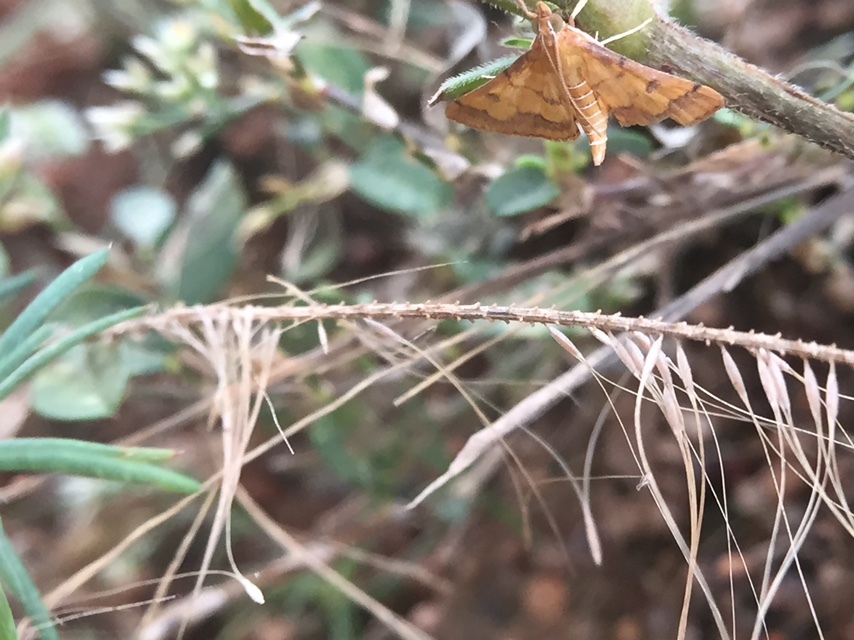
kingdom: Animalia
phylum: Arthropoda
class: Insecta
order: Lepidoptera
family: Crambidae
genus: Ischnurges
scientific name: Ischnurges luteomarginalis
